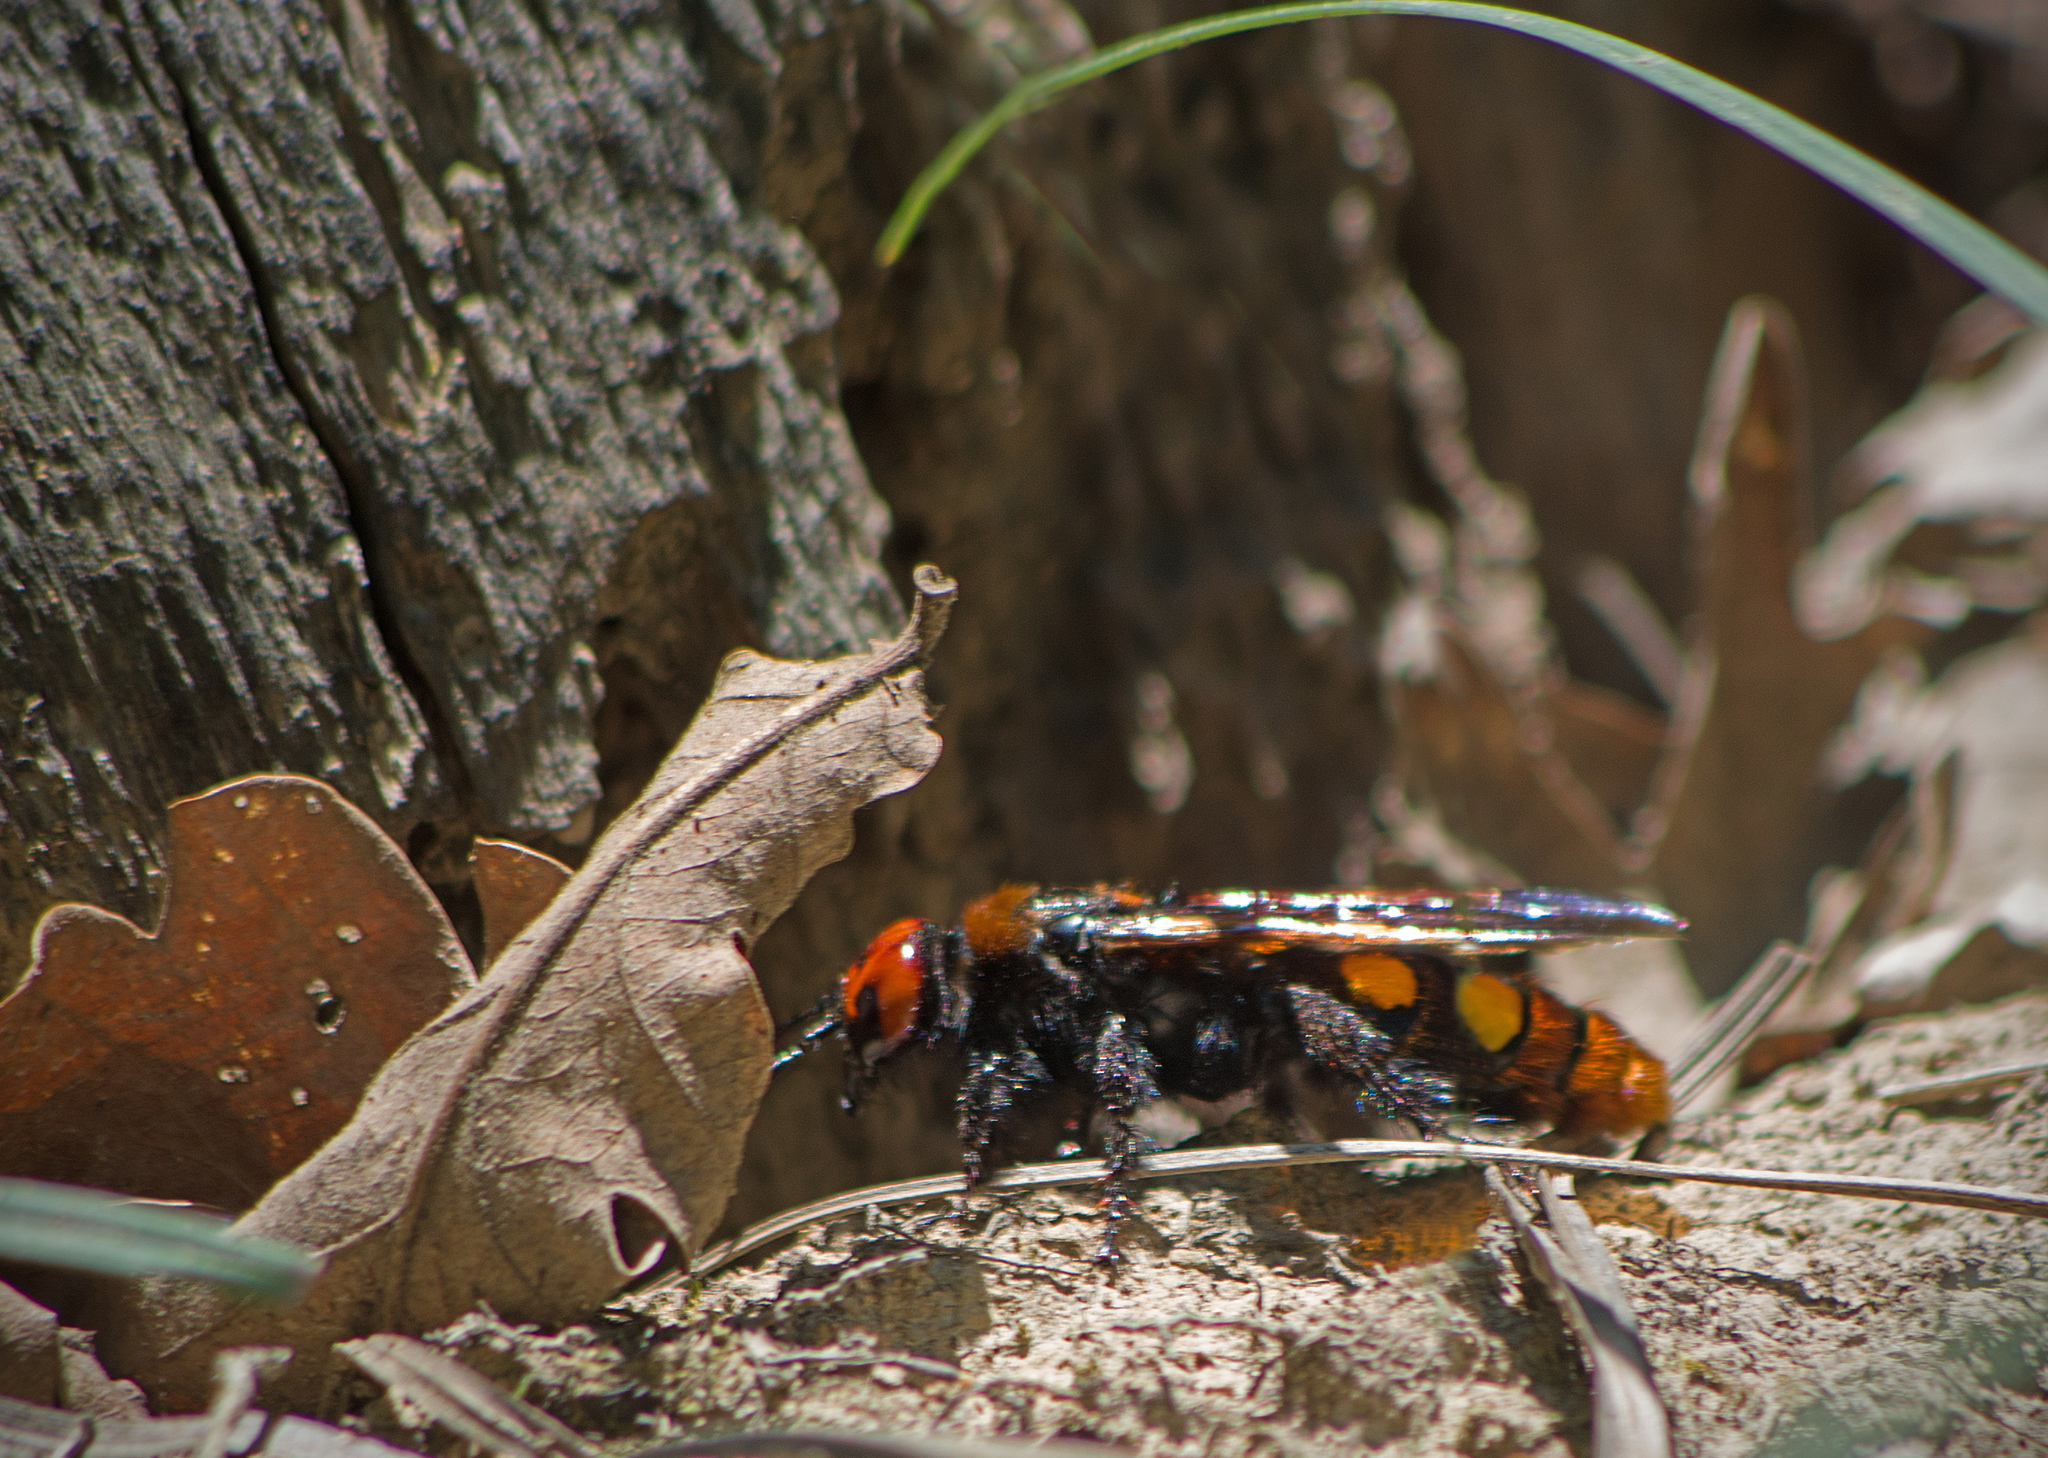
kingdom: Animalia
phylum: Arthropoda
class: Insecta
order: Hymenoptera
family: Scoliidae
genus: Megascolia
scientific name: Megascolia maculata
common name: Mammoth wasp
